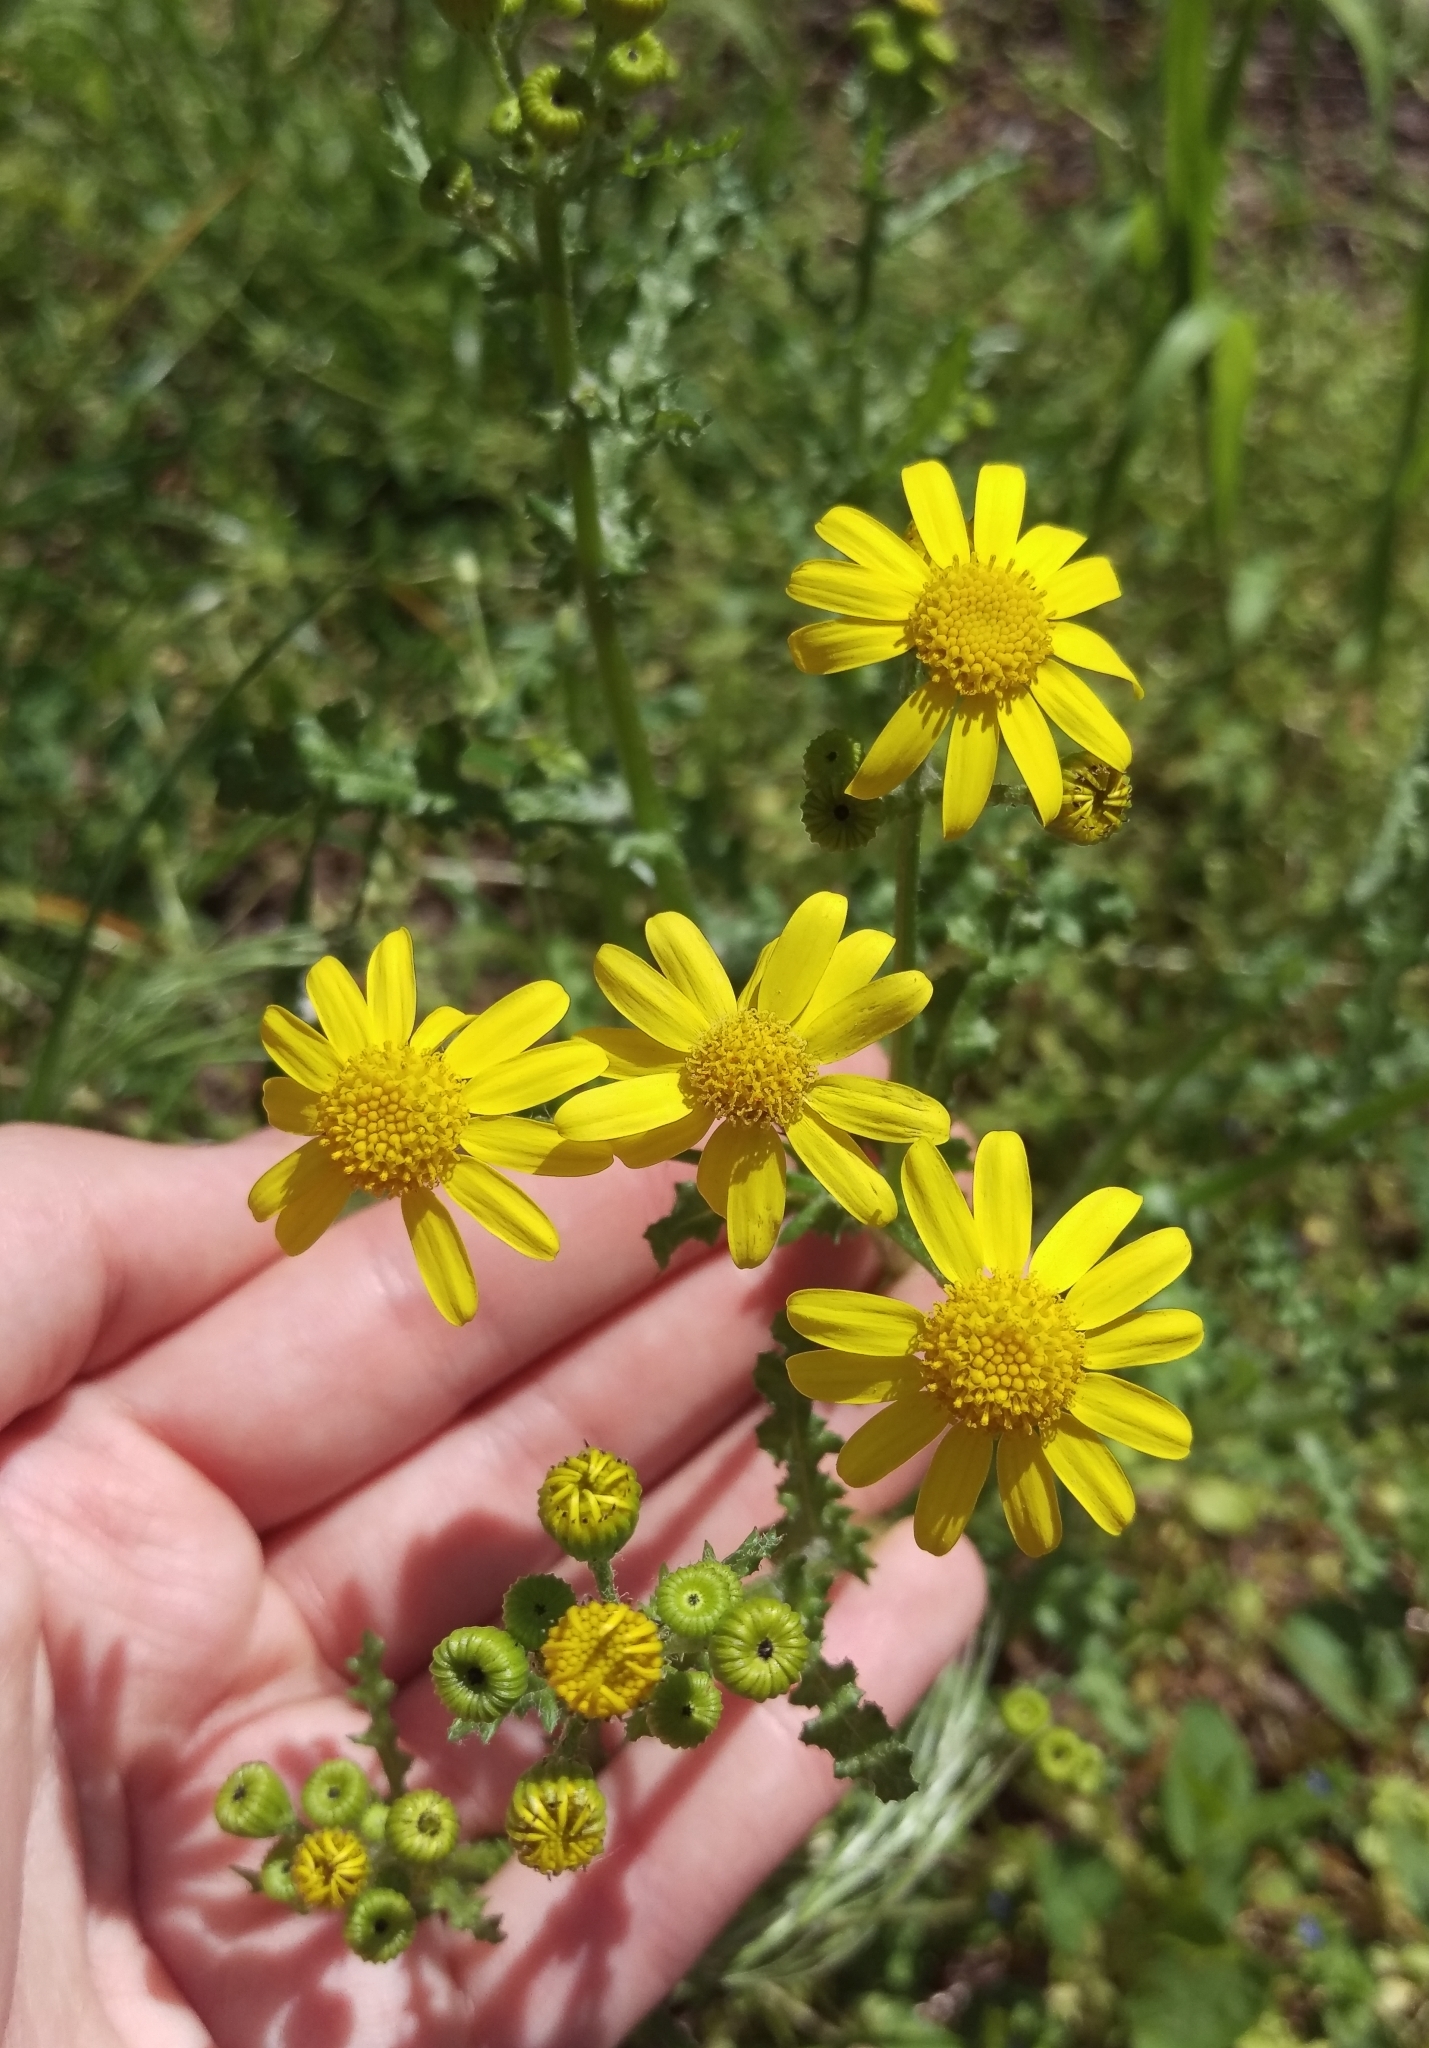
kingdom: Plantae
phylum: Tracheophyta
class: Magnoliopsida
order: Asterales
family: Asteraceae
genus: Senecio
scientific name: Senecio vernalis
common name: Eastern groundsel
